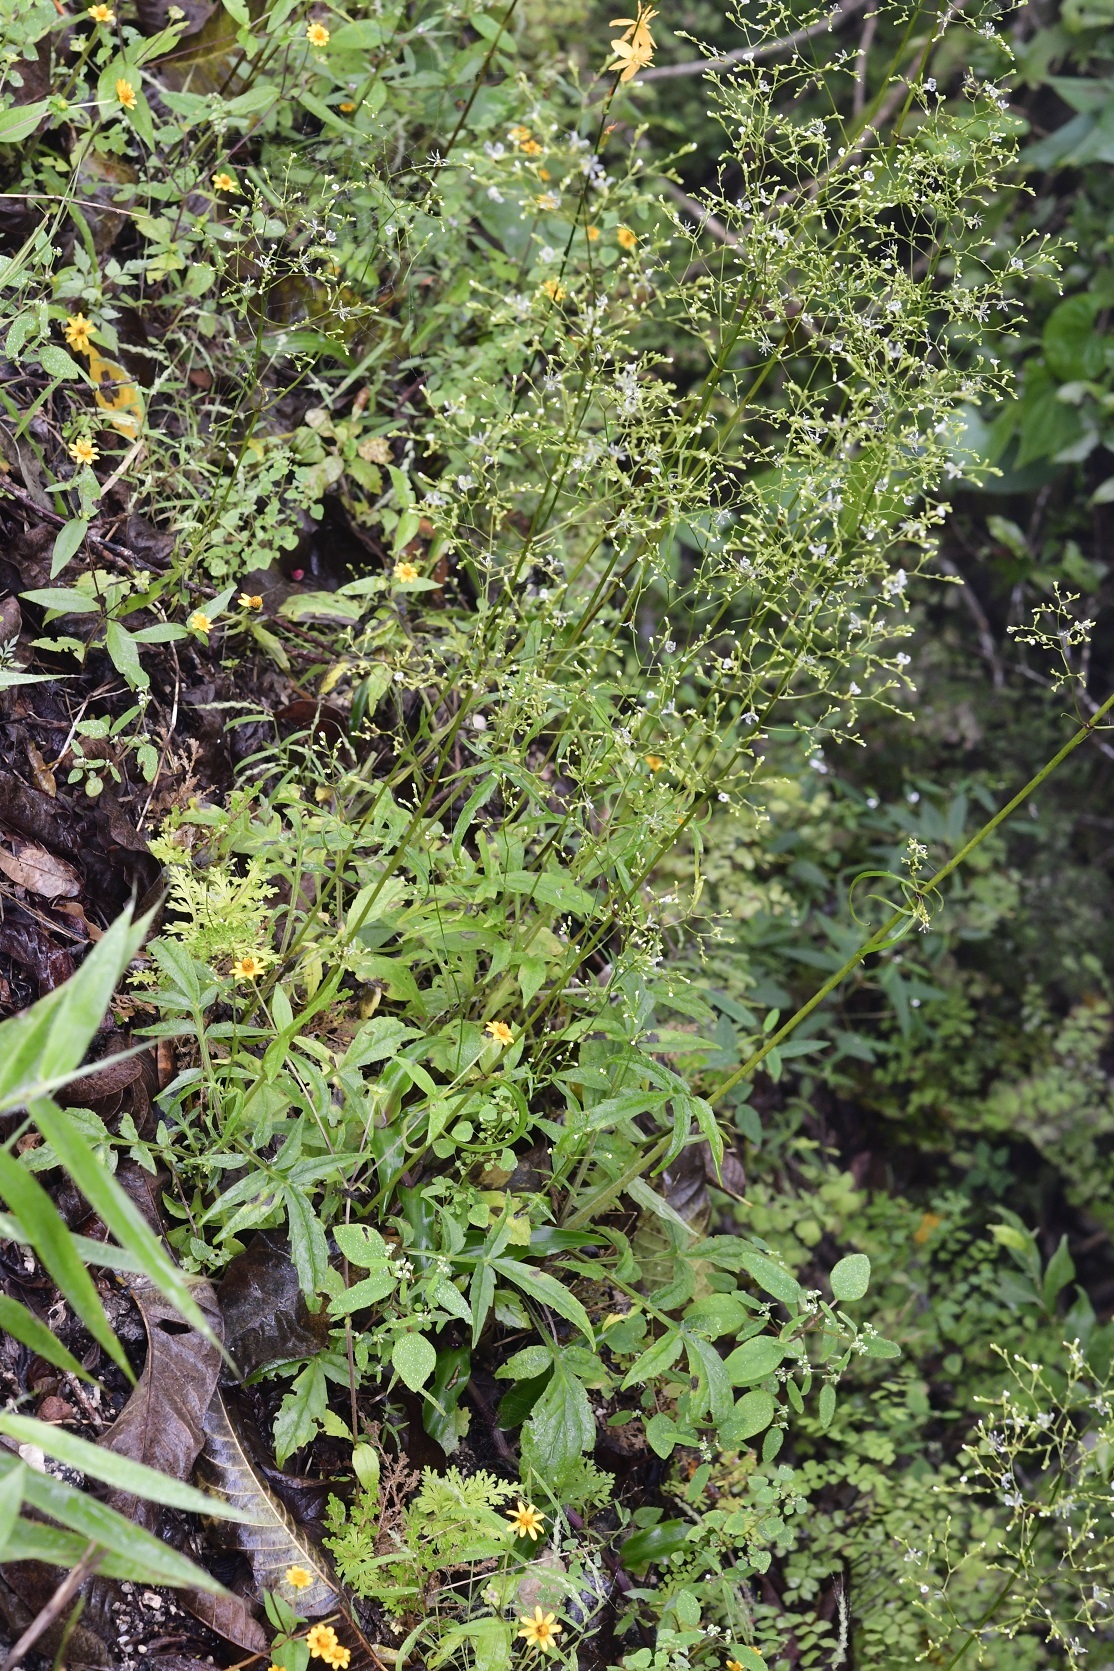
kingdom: Plantae
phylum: Tracheophyta
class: Magnoliopsida
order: Dipsacales
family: Caprifoliaceae
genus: Valeriana
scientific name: Valeriana sorbifolia
